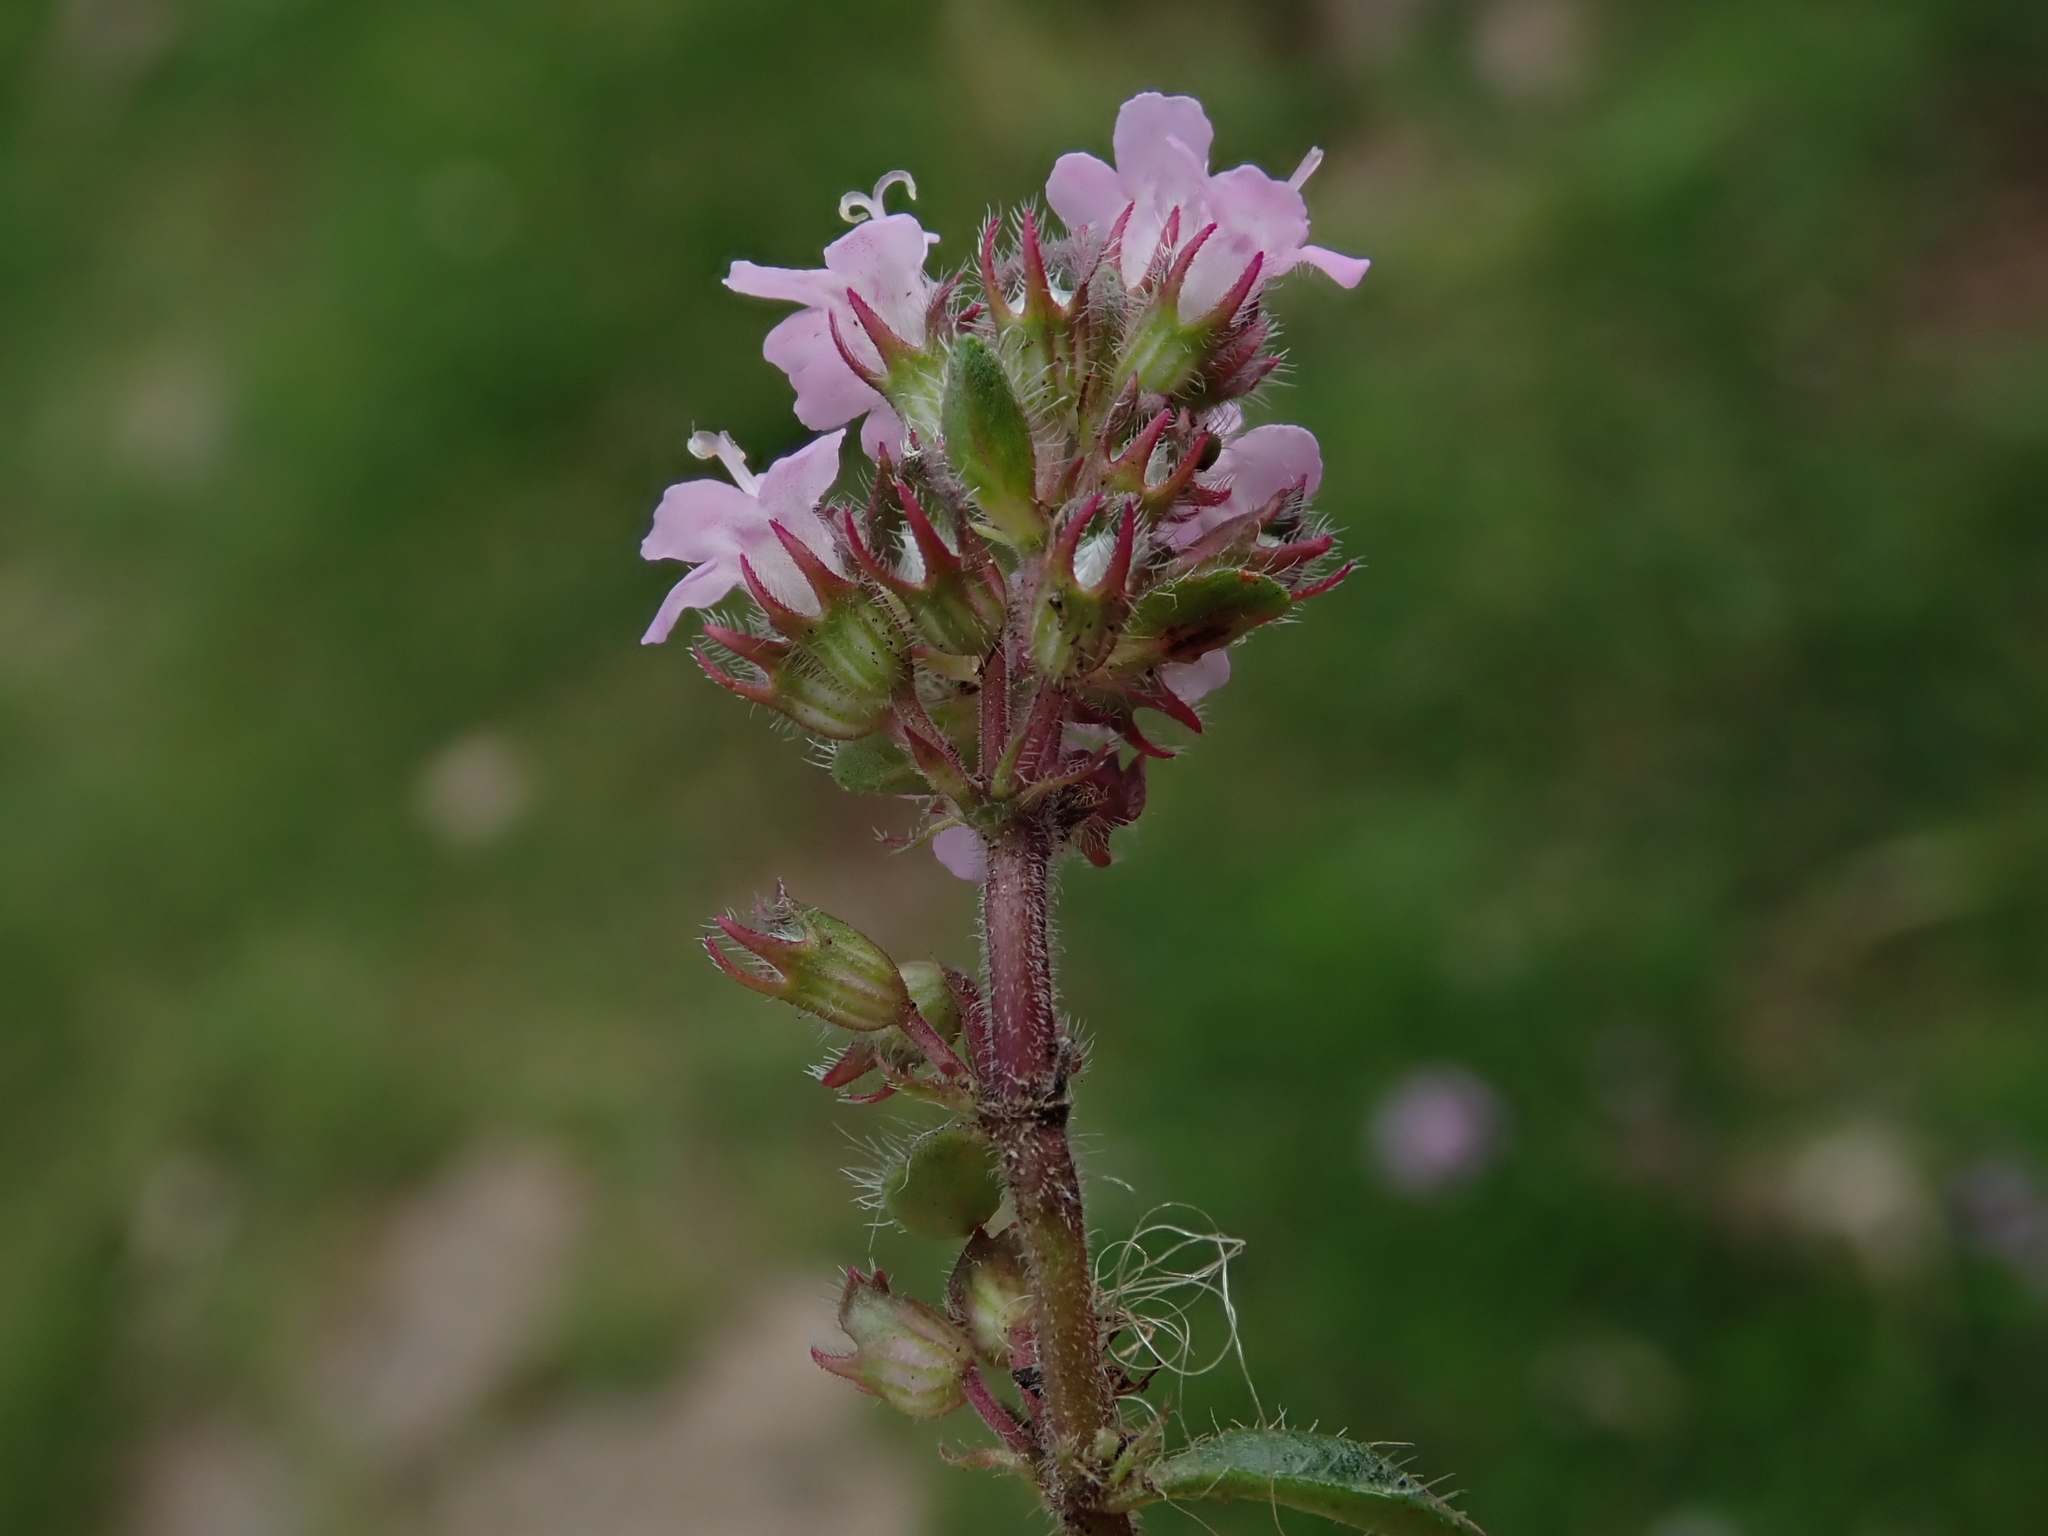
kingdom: Plantae
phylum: Tracheophyta
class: Magnoliopsida
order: Lamiales
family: Lamiaceae
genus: Thymus
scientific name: Thymus praecox
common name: Wild thyme
